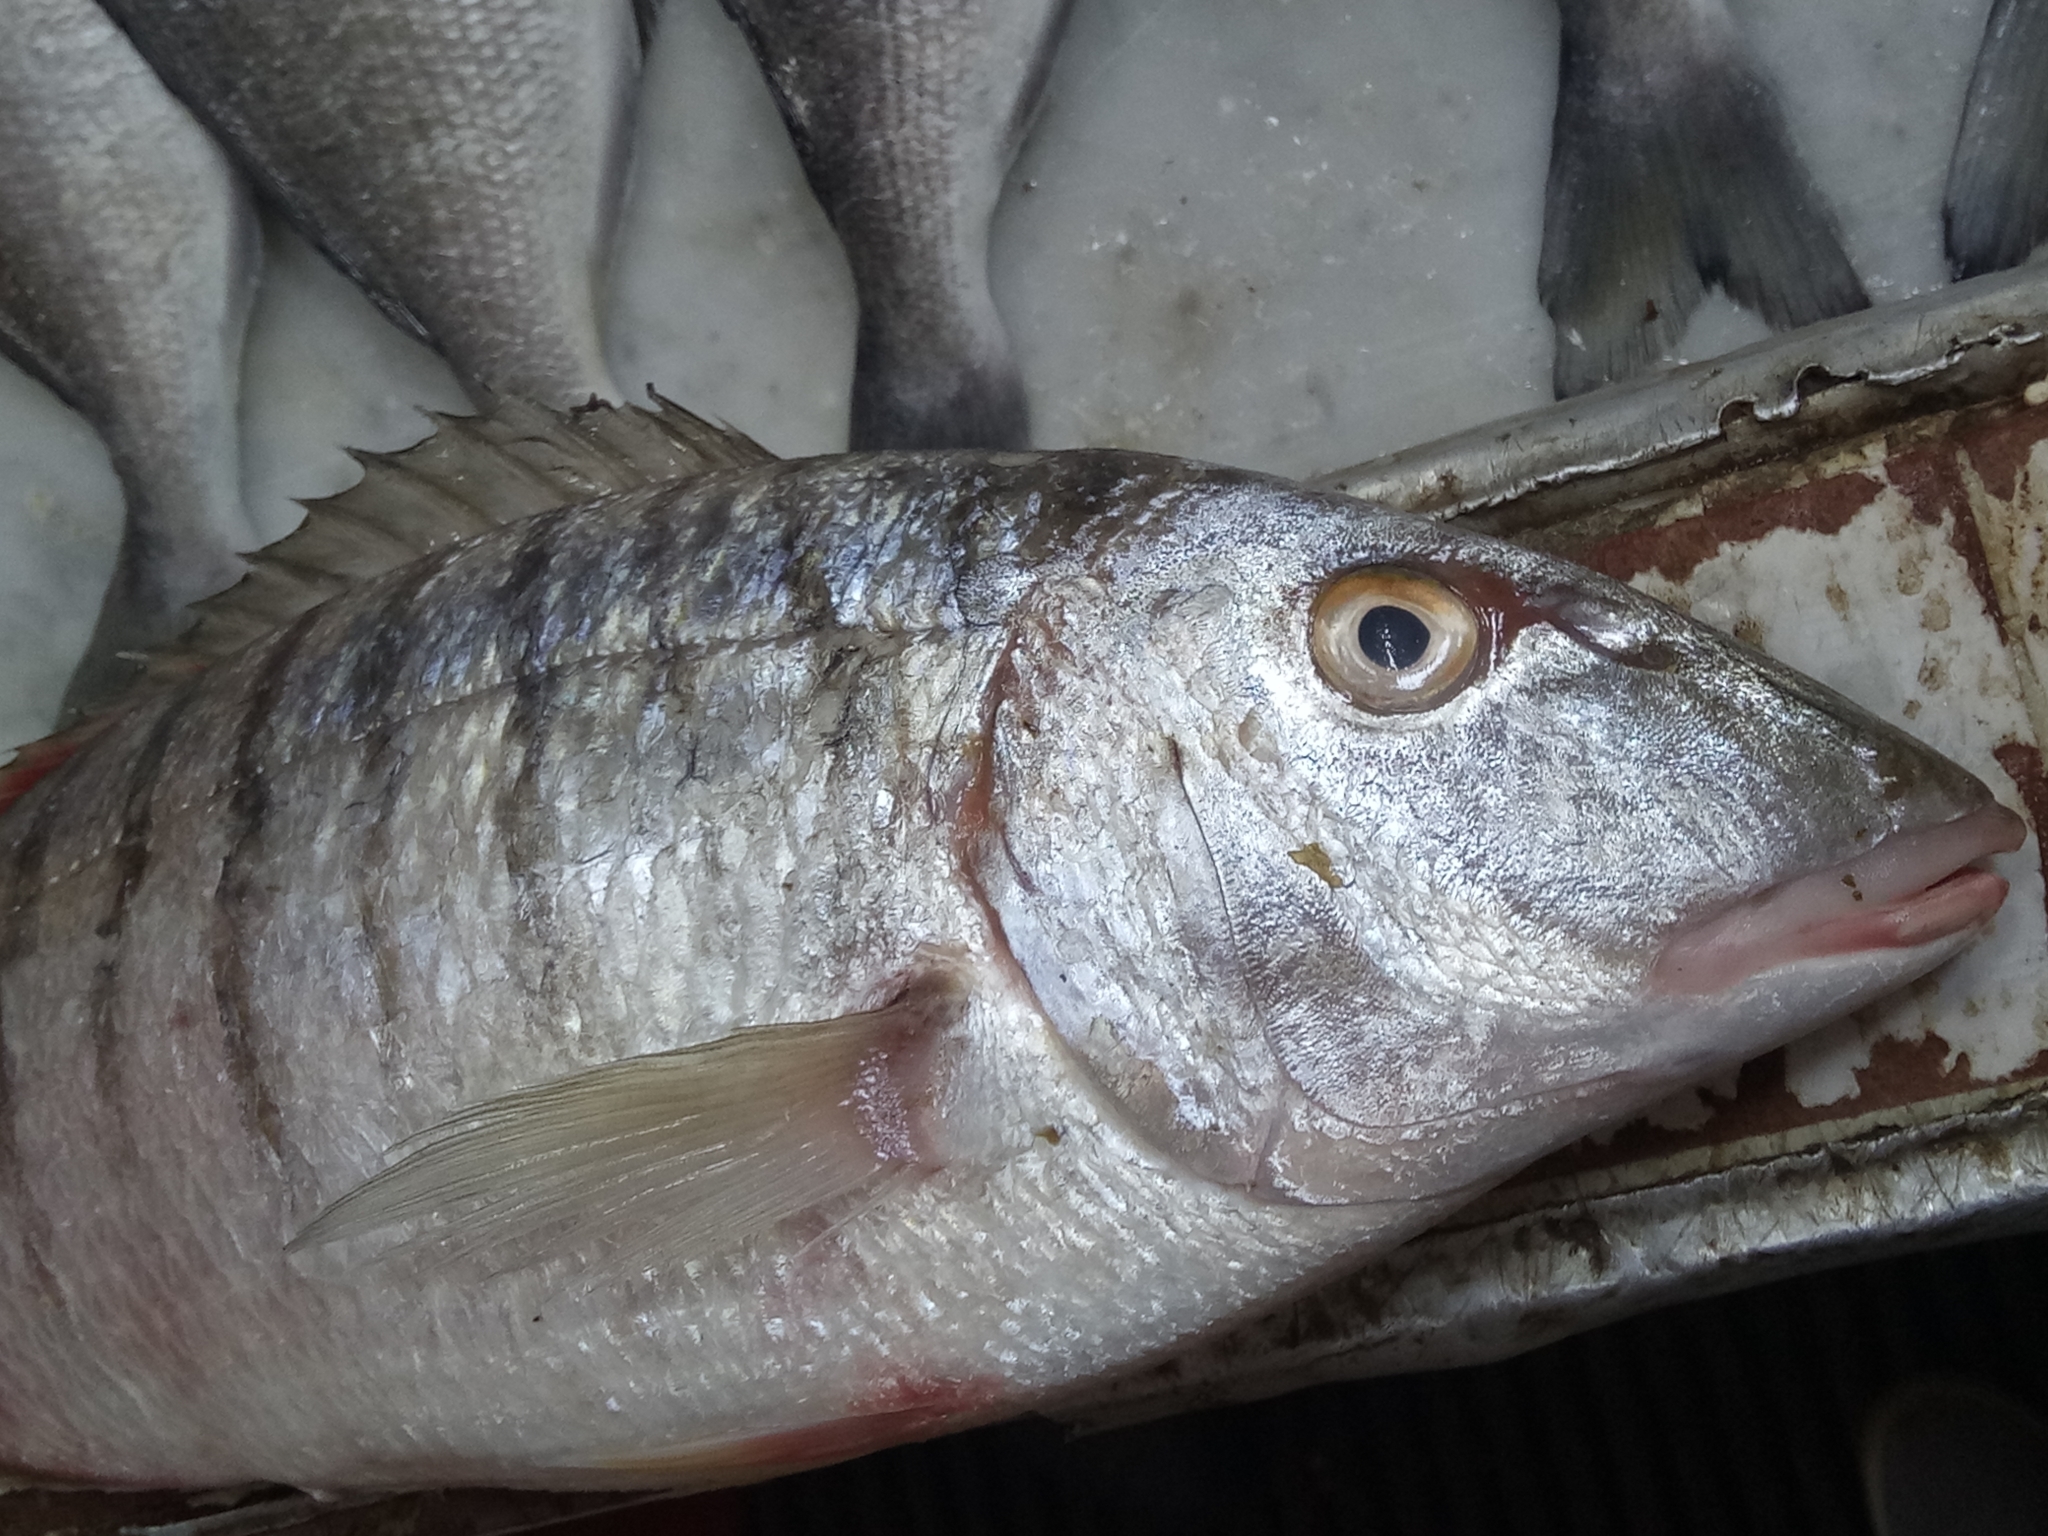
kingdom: Animalia
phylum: Chordata
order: Perciformes
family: Sparidae
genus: Lithognathus
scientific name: Lithognathus mormyrus
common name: Sand steenbras
